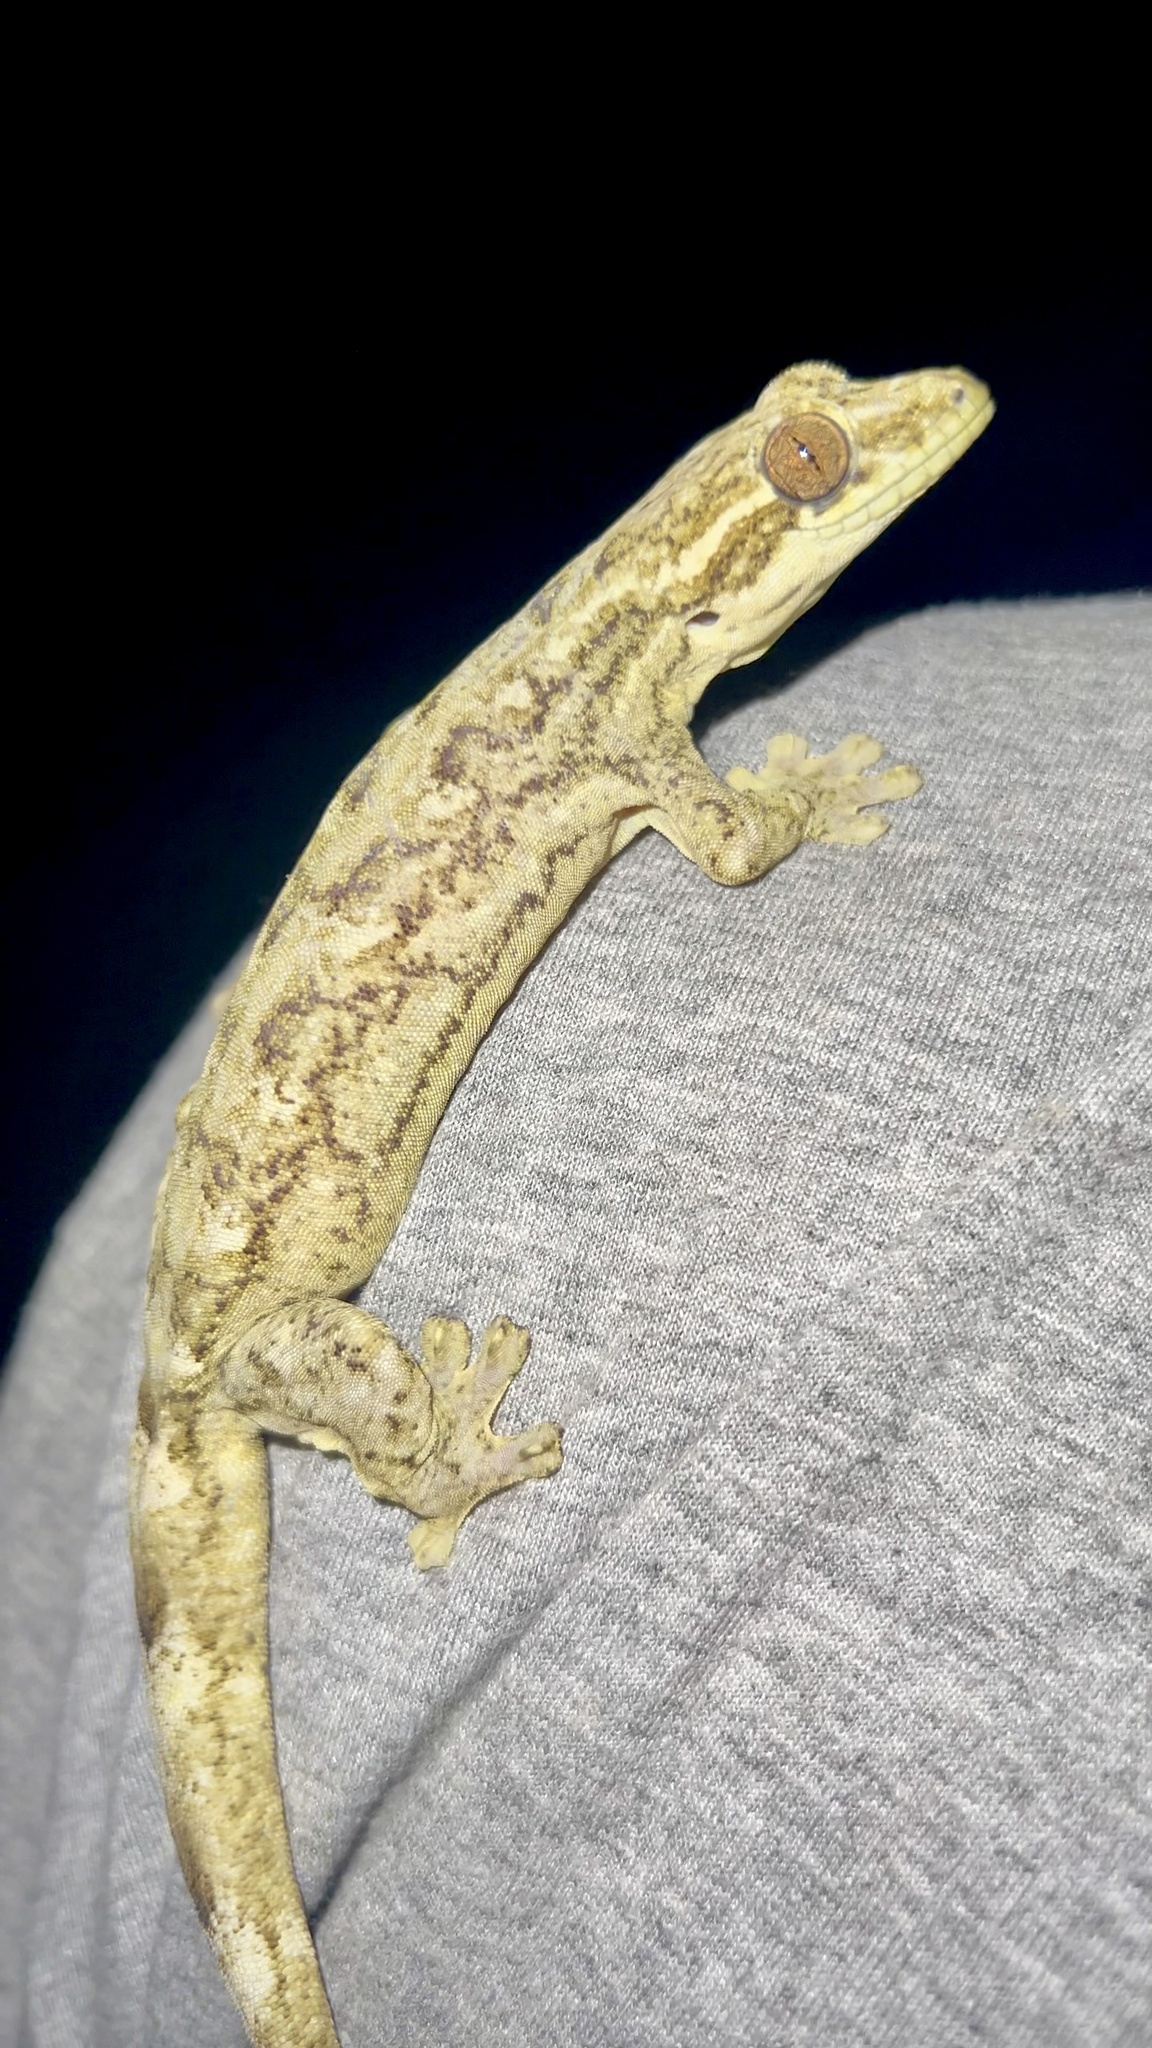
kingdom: Animalia
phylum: Chordata
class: Squamata
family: Phyllodactylidae
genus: Thecadactylus
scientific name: Thecadactylus solimoensis
